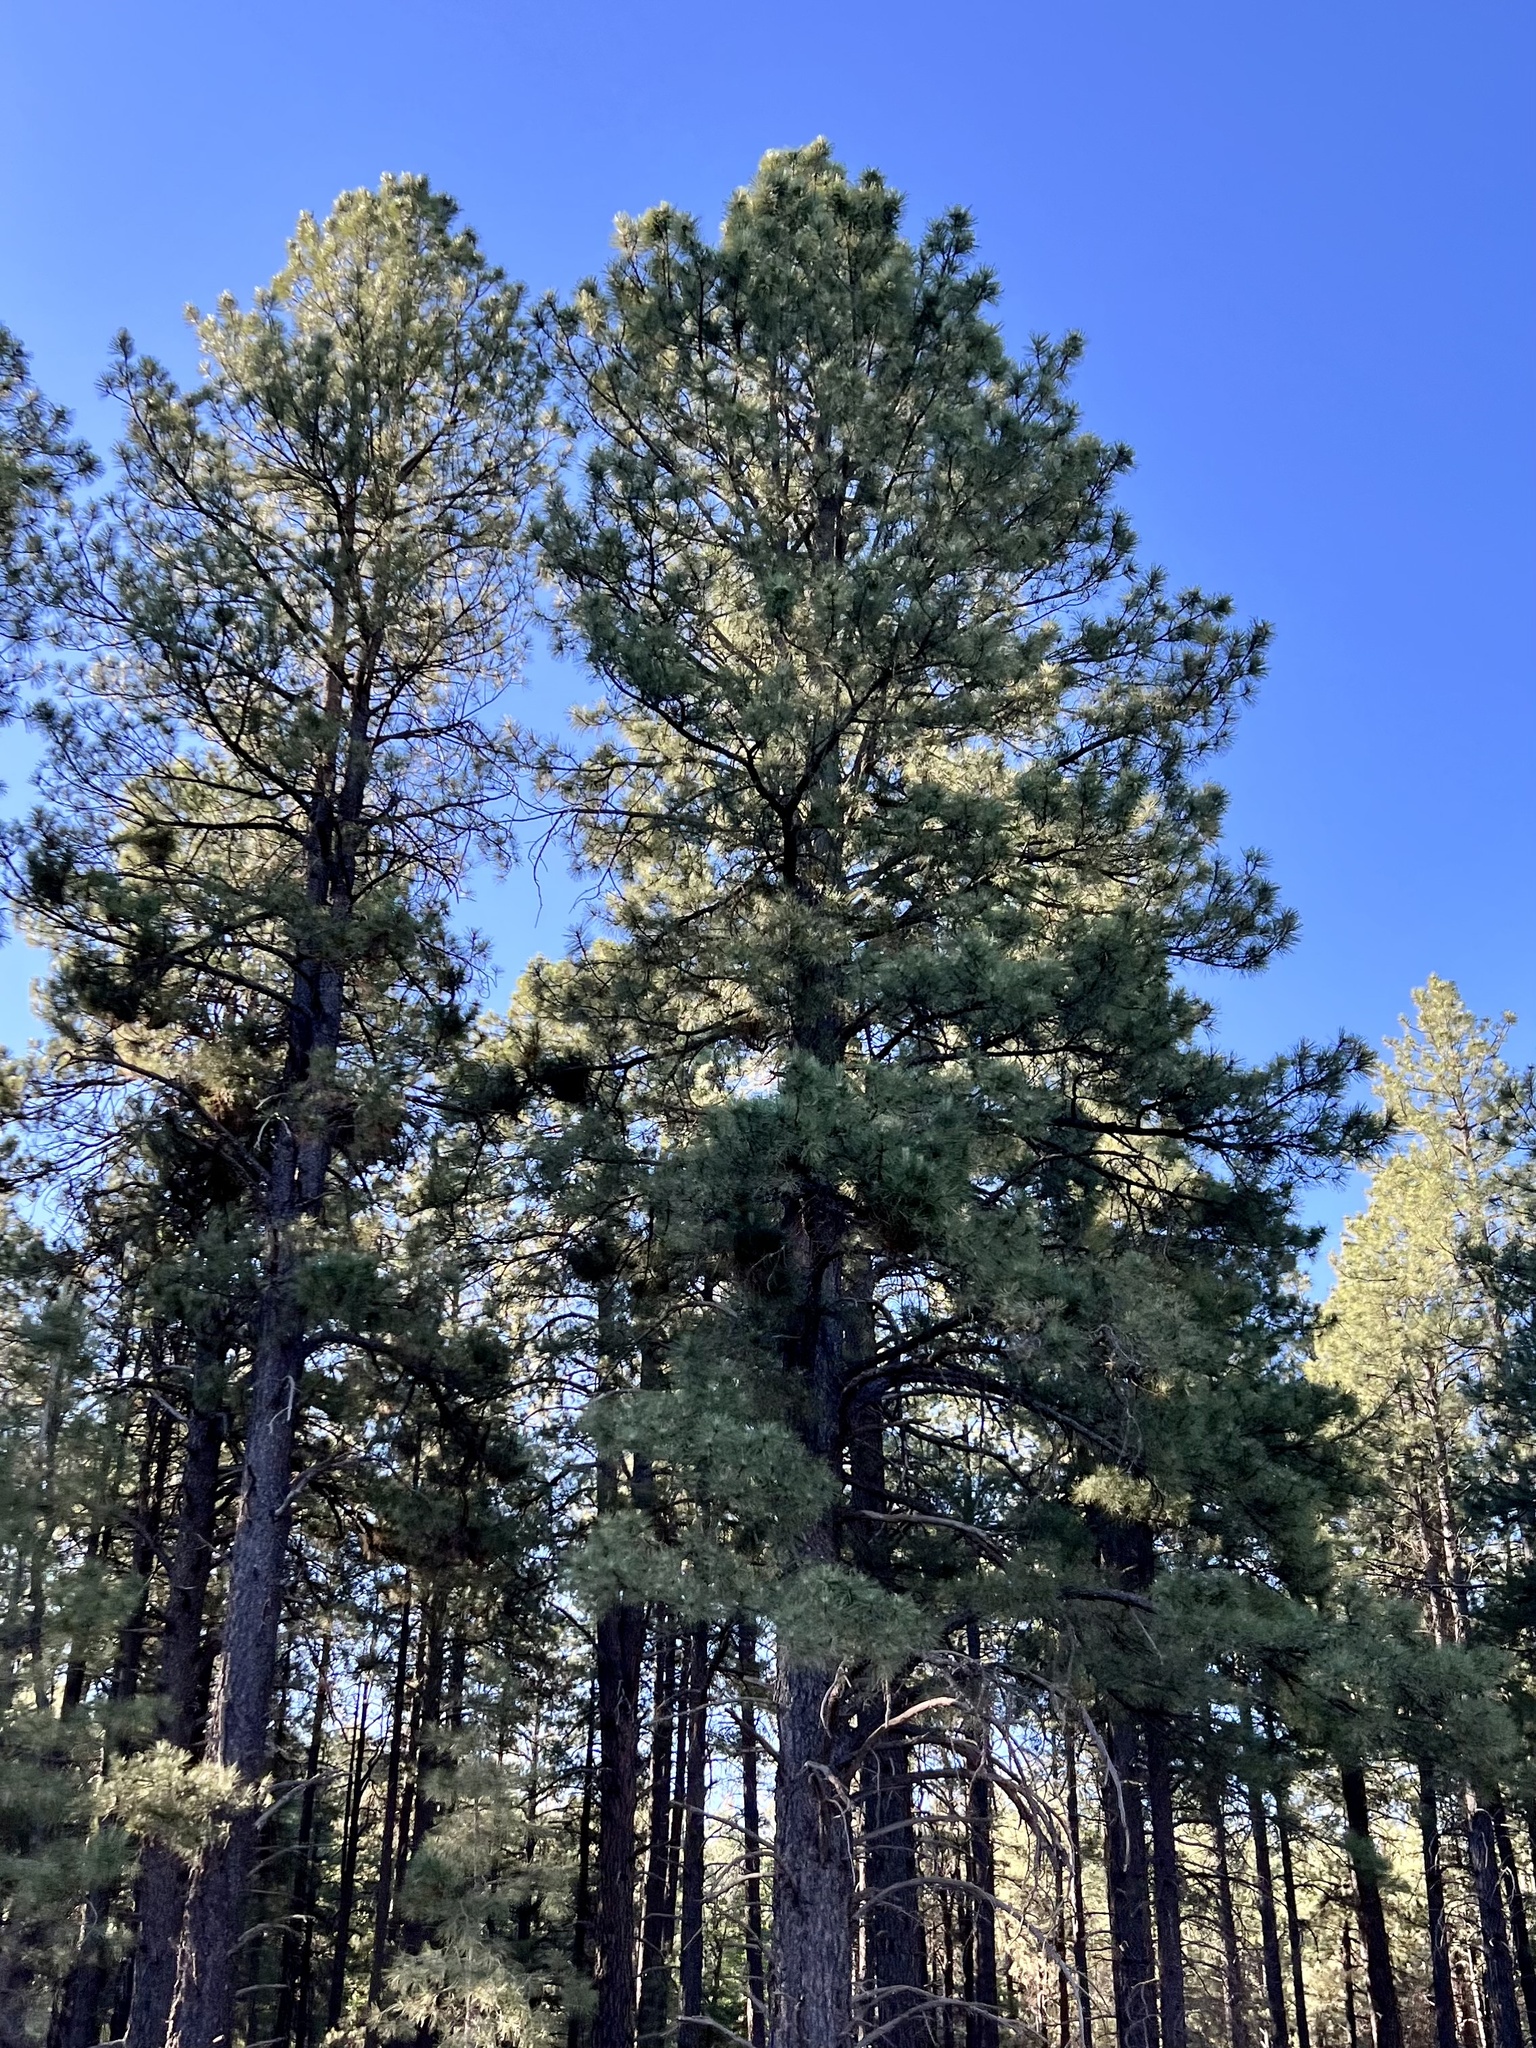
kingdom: Plantae
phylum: Tracheophyta
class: Pinopsida
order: Pinales
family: Pinaceae
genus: Pinus
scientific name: Pinus ponderosa
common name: Western yellow-pine
